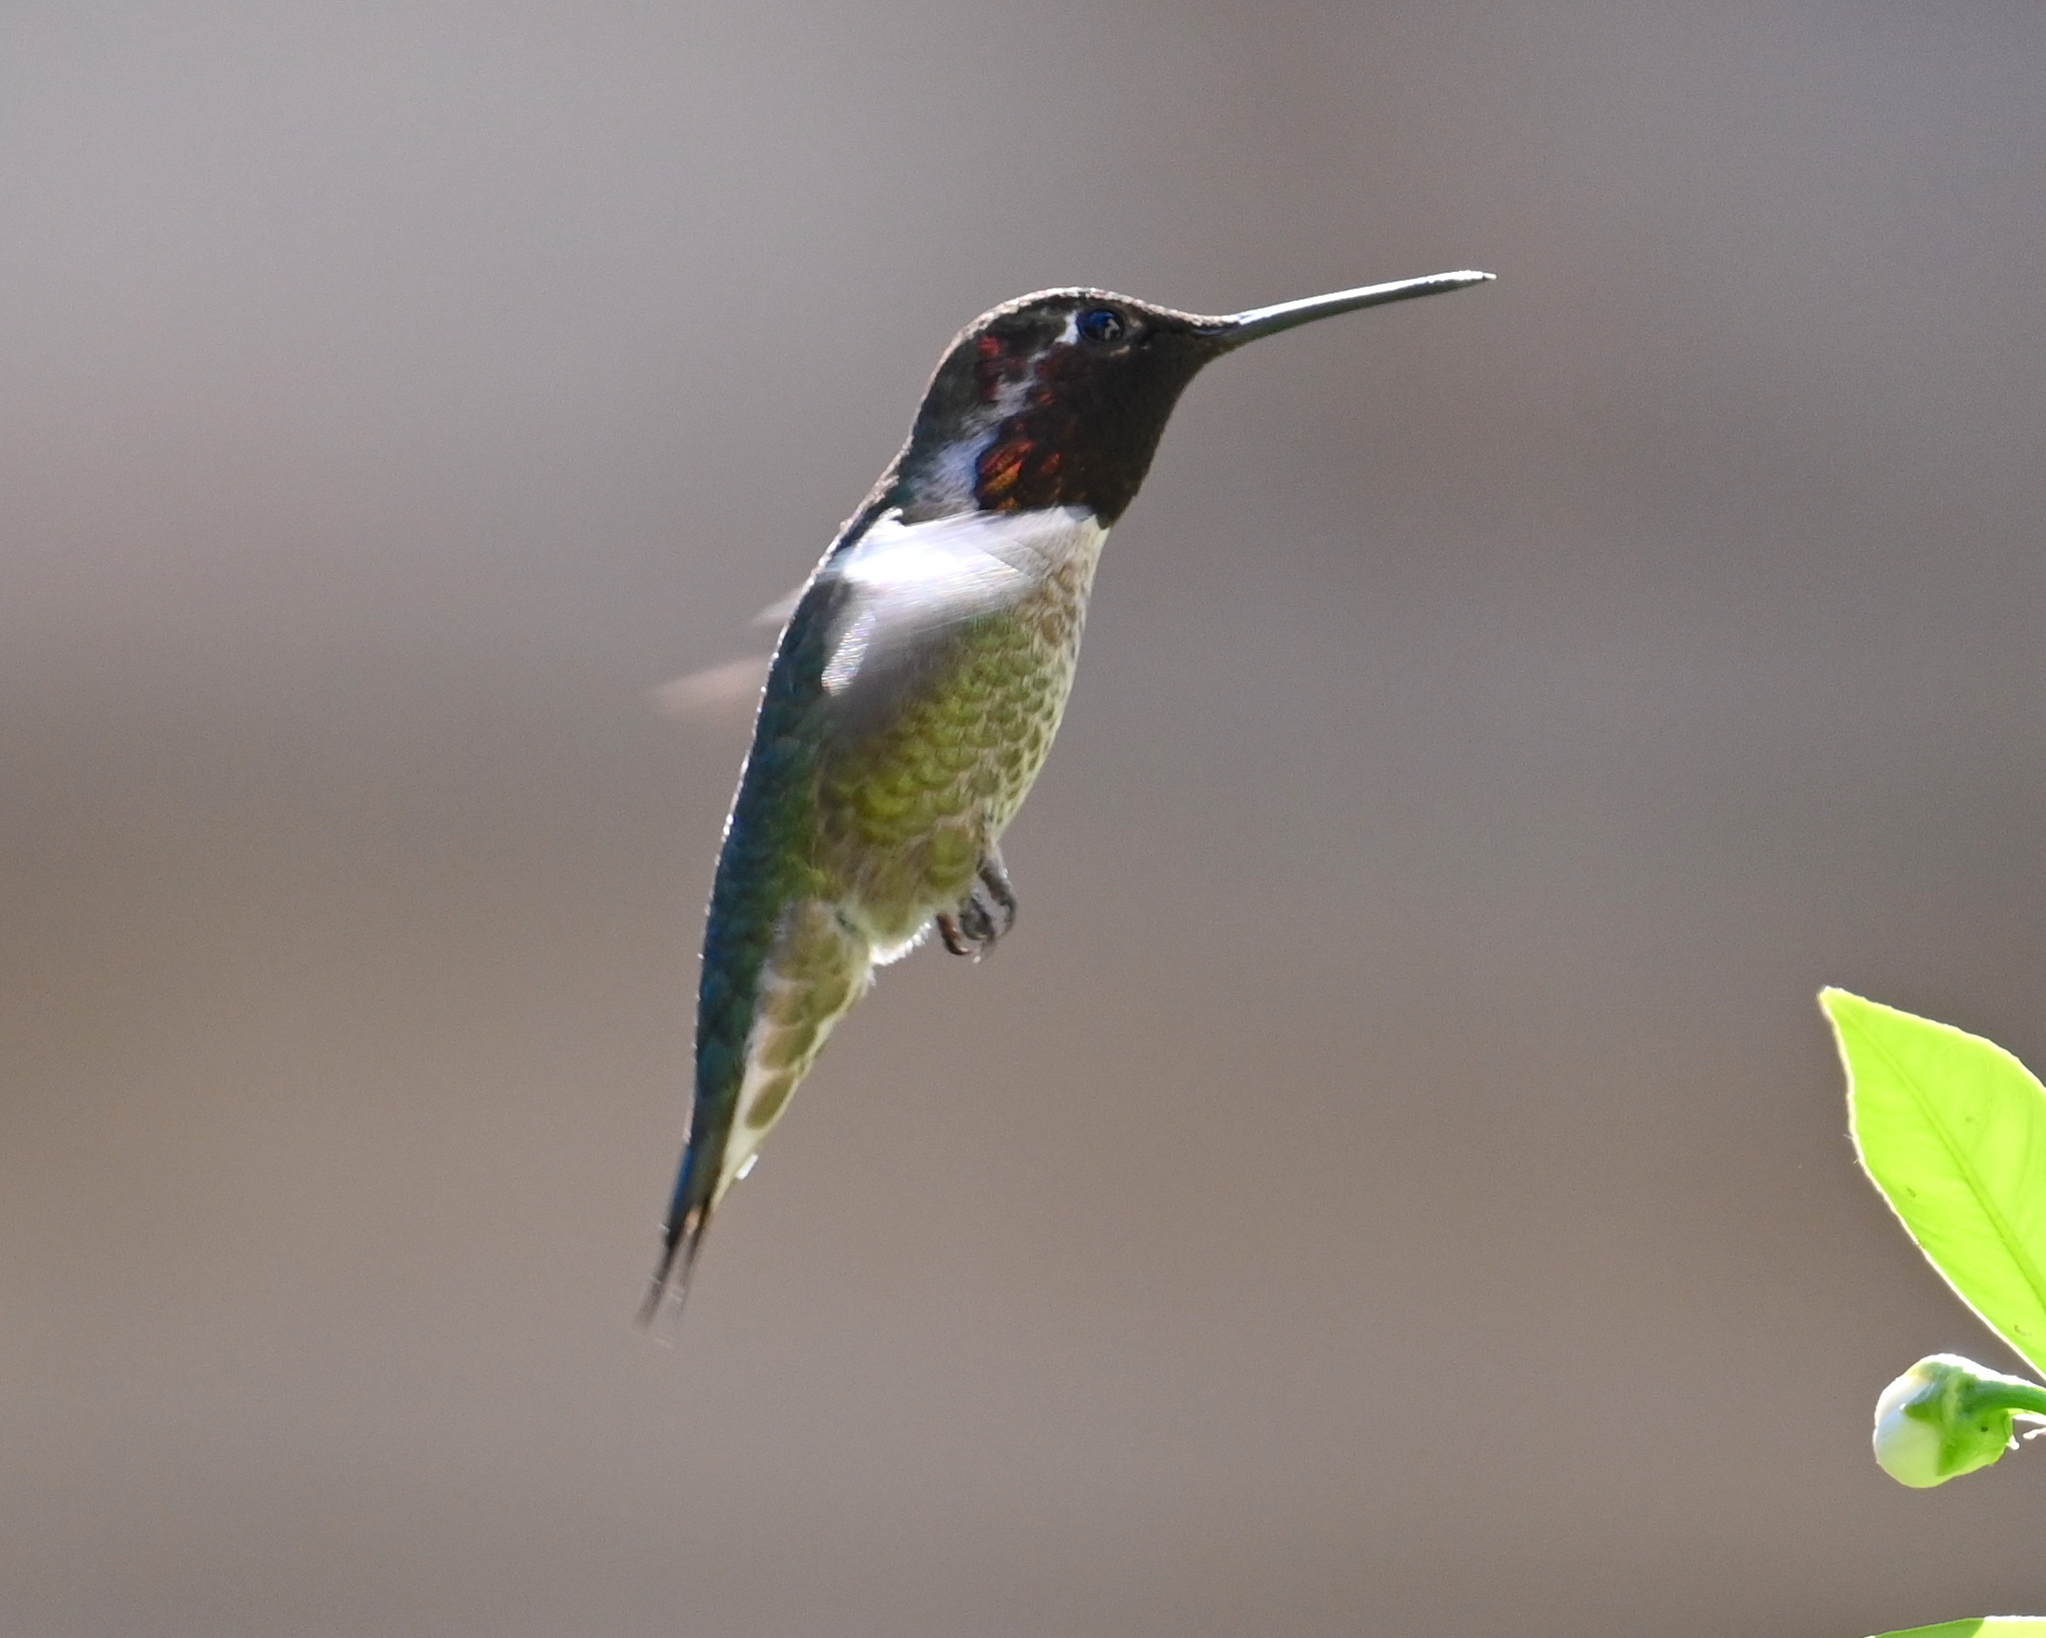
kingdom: Animalia
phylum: Chordata
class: Aves
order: Apodiformes
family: Trochilidae
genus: Calypte
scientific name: Calypte anna
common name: Anna's hummingbird
